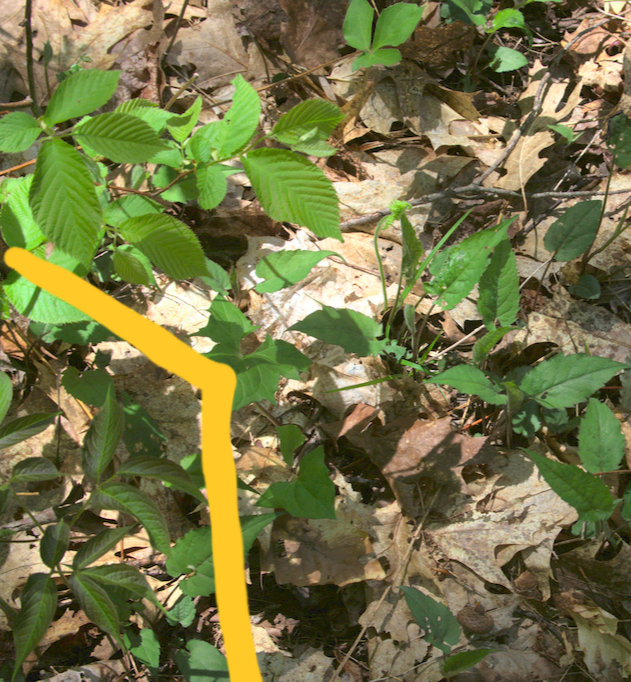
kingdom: Plantae
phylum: Tracheophyta
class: Magnoliopsida
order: Apiales
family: Araliaceae
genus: Aralia
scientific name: Aralia nudicaulis
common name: Wild sarsaparilla
